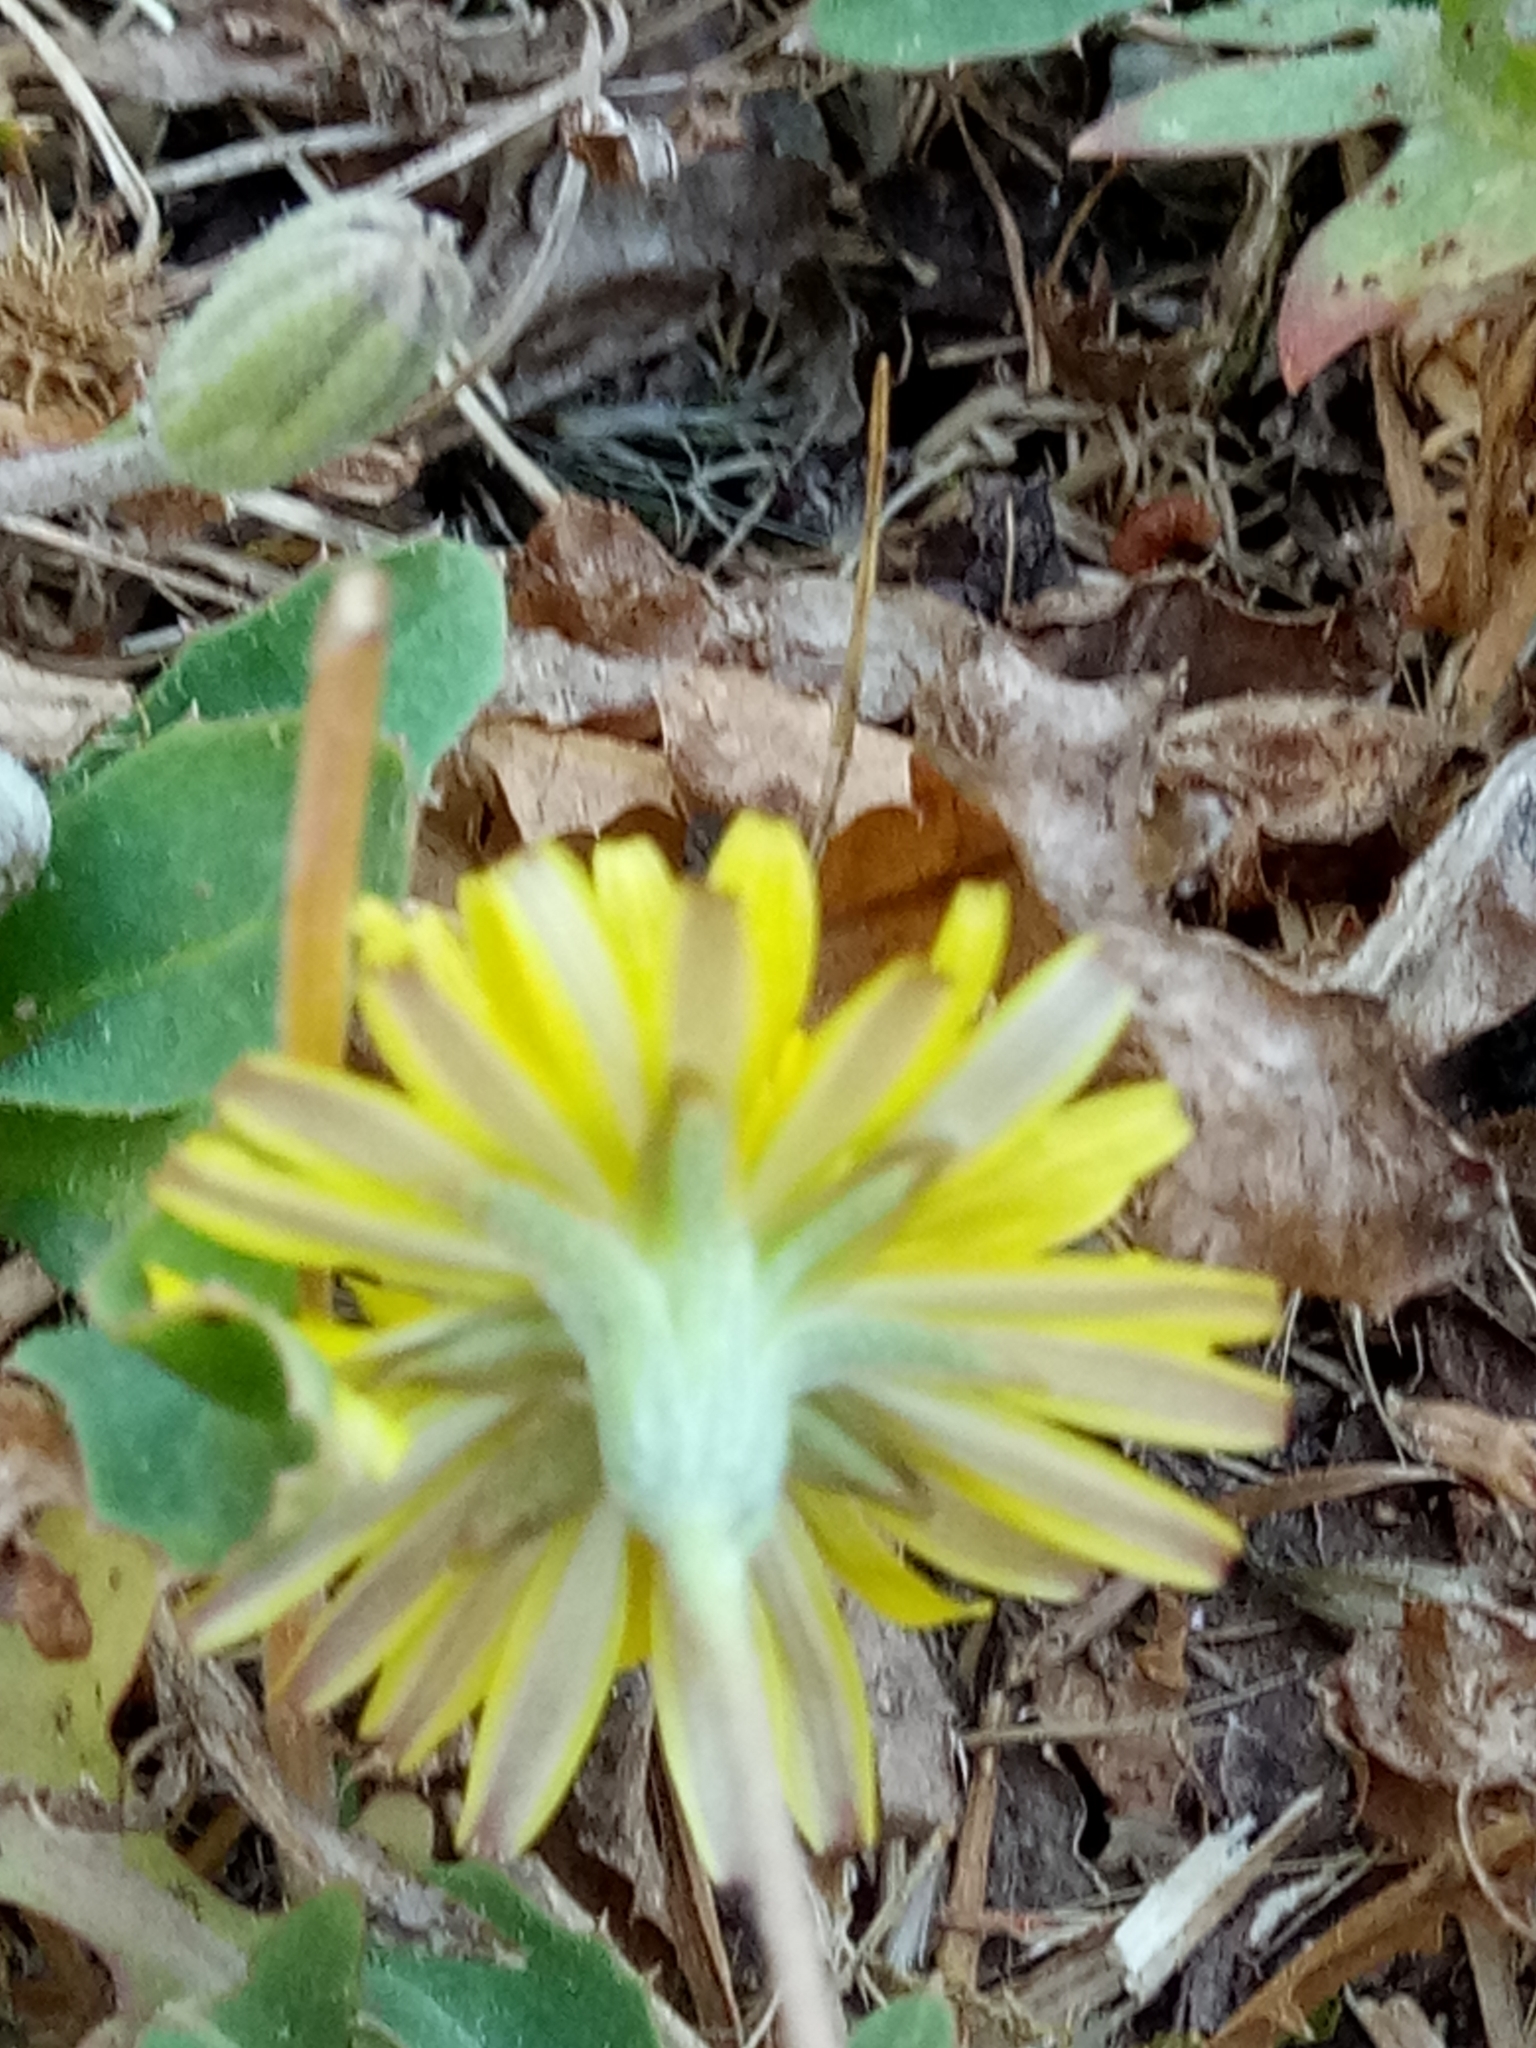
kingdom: Plantae
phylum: Tracheophyta
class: Magnoliopsida
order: Asterales
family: Asteraceae
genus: Crepis
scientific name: Crepis bursifolia
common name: Italian hawksbeard
